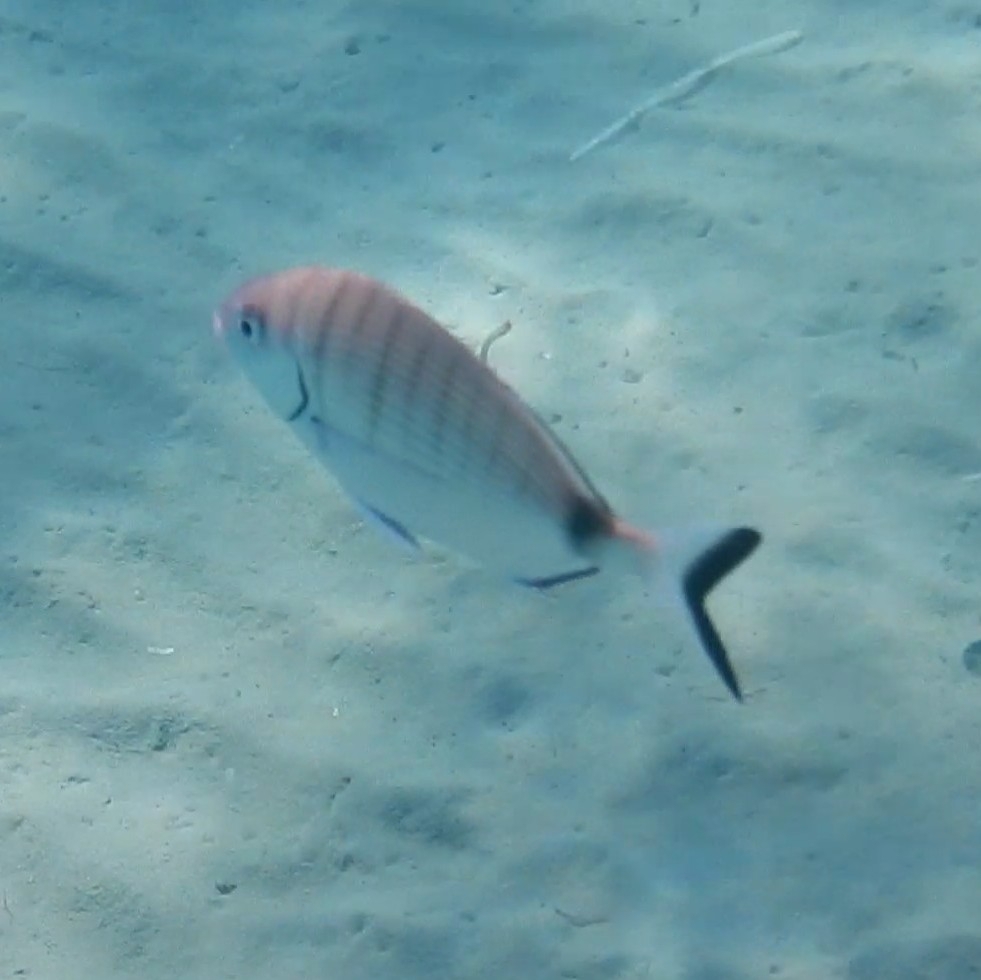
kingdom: Animalia
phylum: Chordata
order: Perciformes
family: Sparidae
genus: Diplodus
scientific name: Diplodus sargus
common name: White seabream
